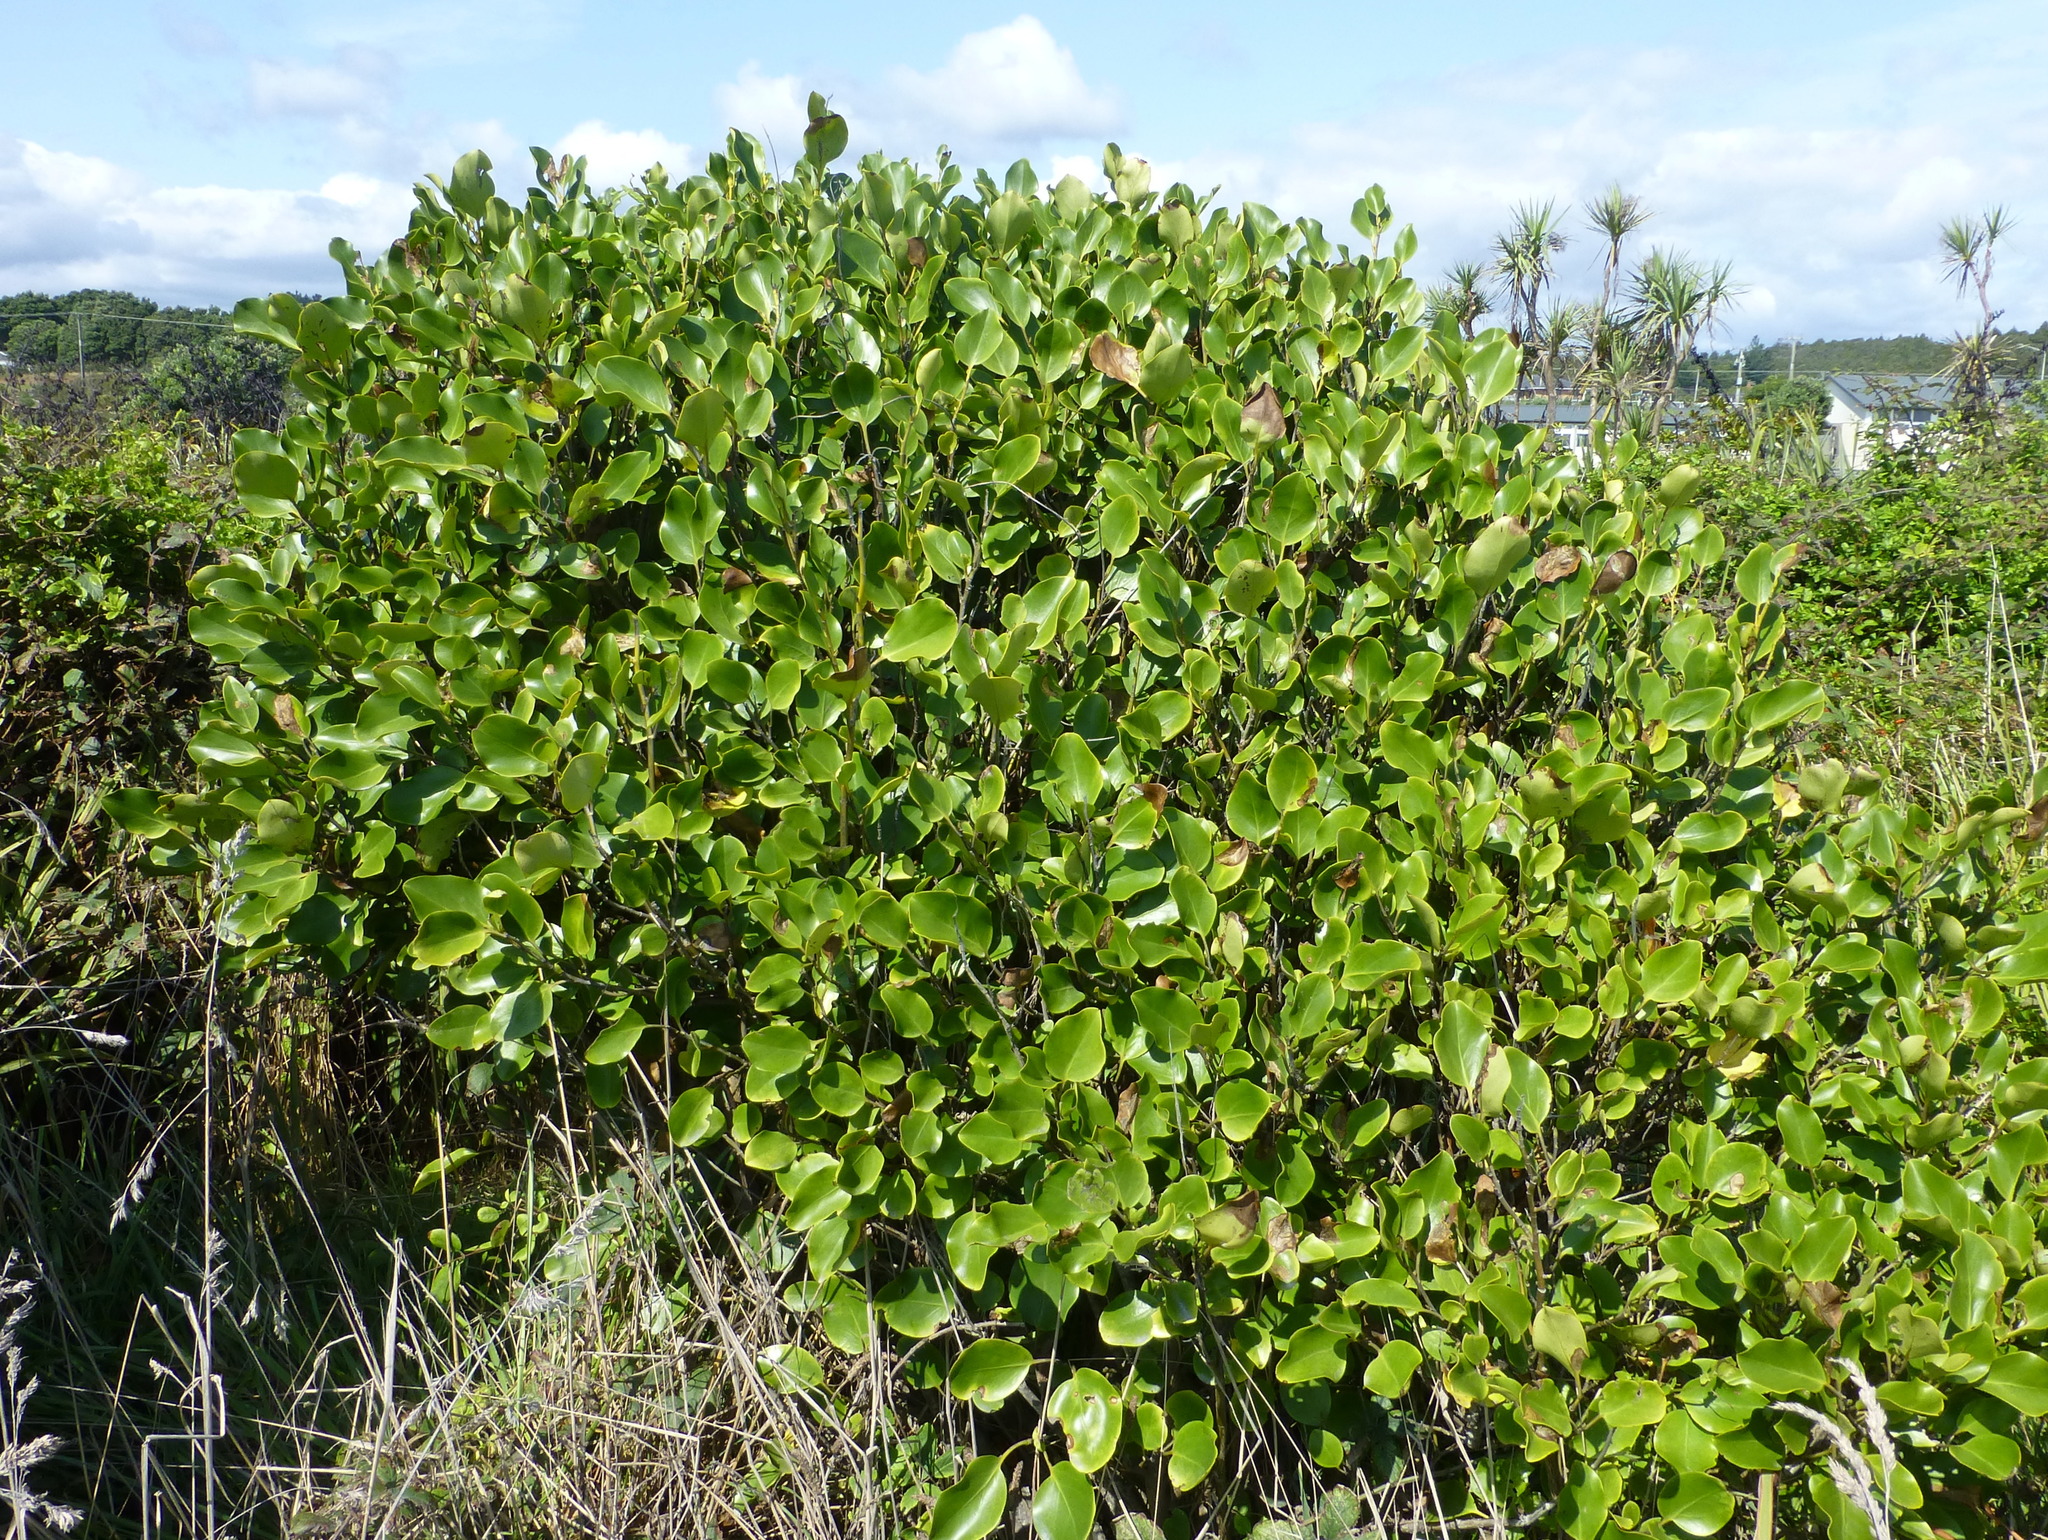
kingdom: Plantae
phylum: Tracheophyta
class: Magnoliopsida
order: Apiales
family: Griseliniaceae
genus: Griselinia
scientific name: Griselinia littoralis
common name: New zealand broadleaf
